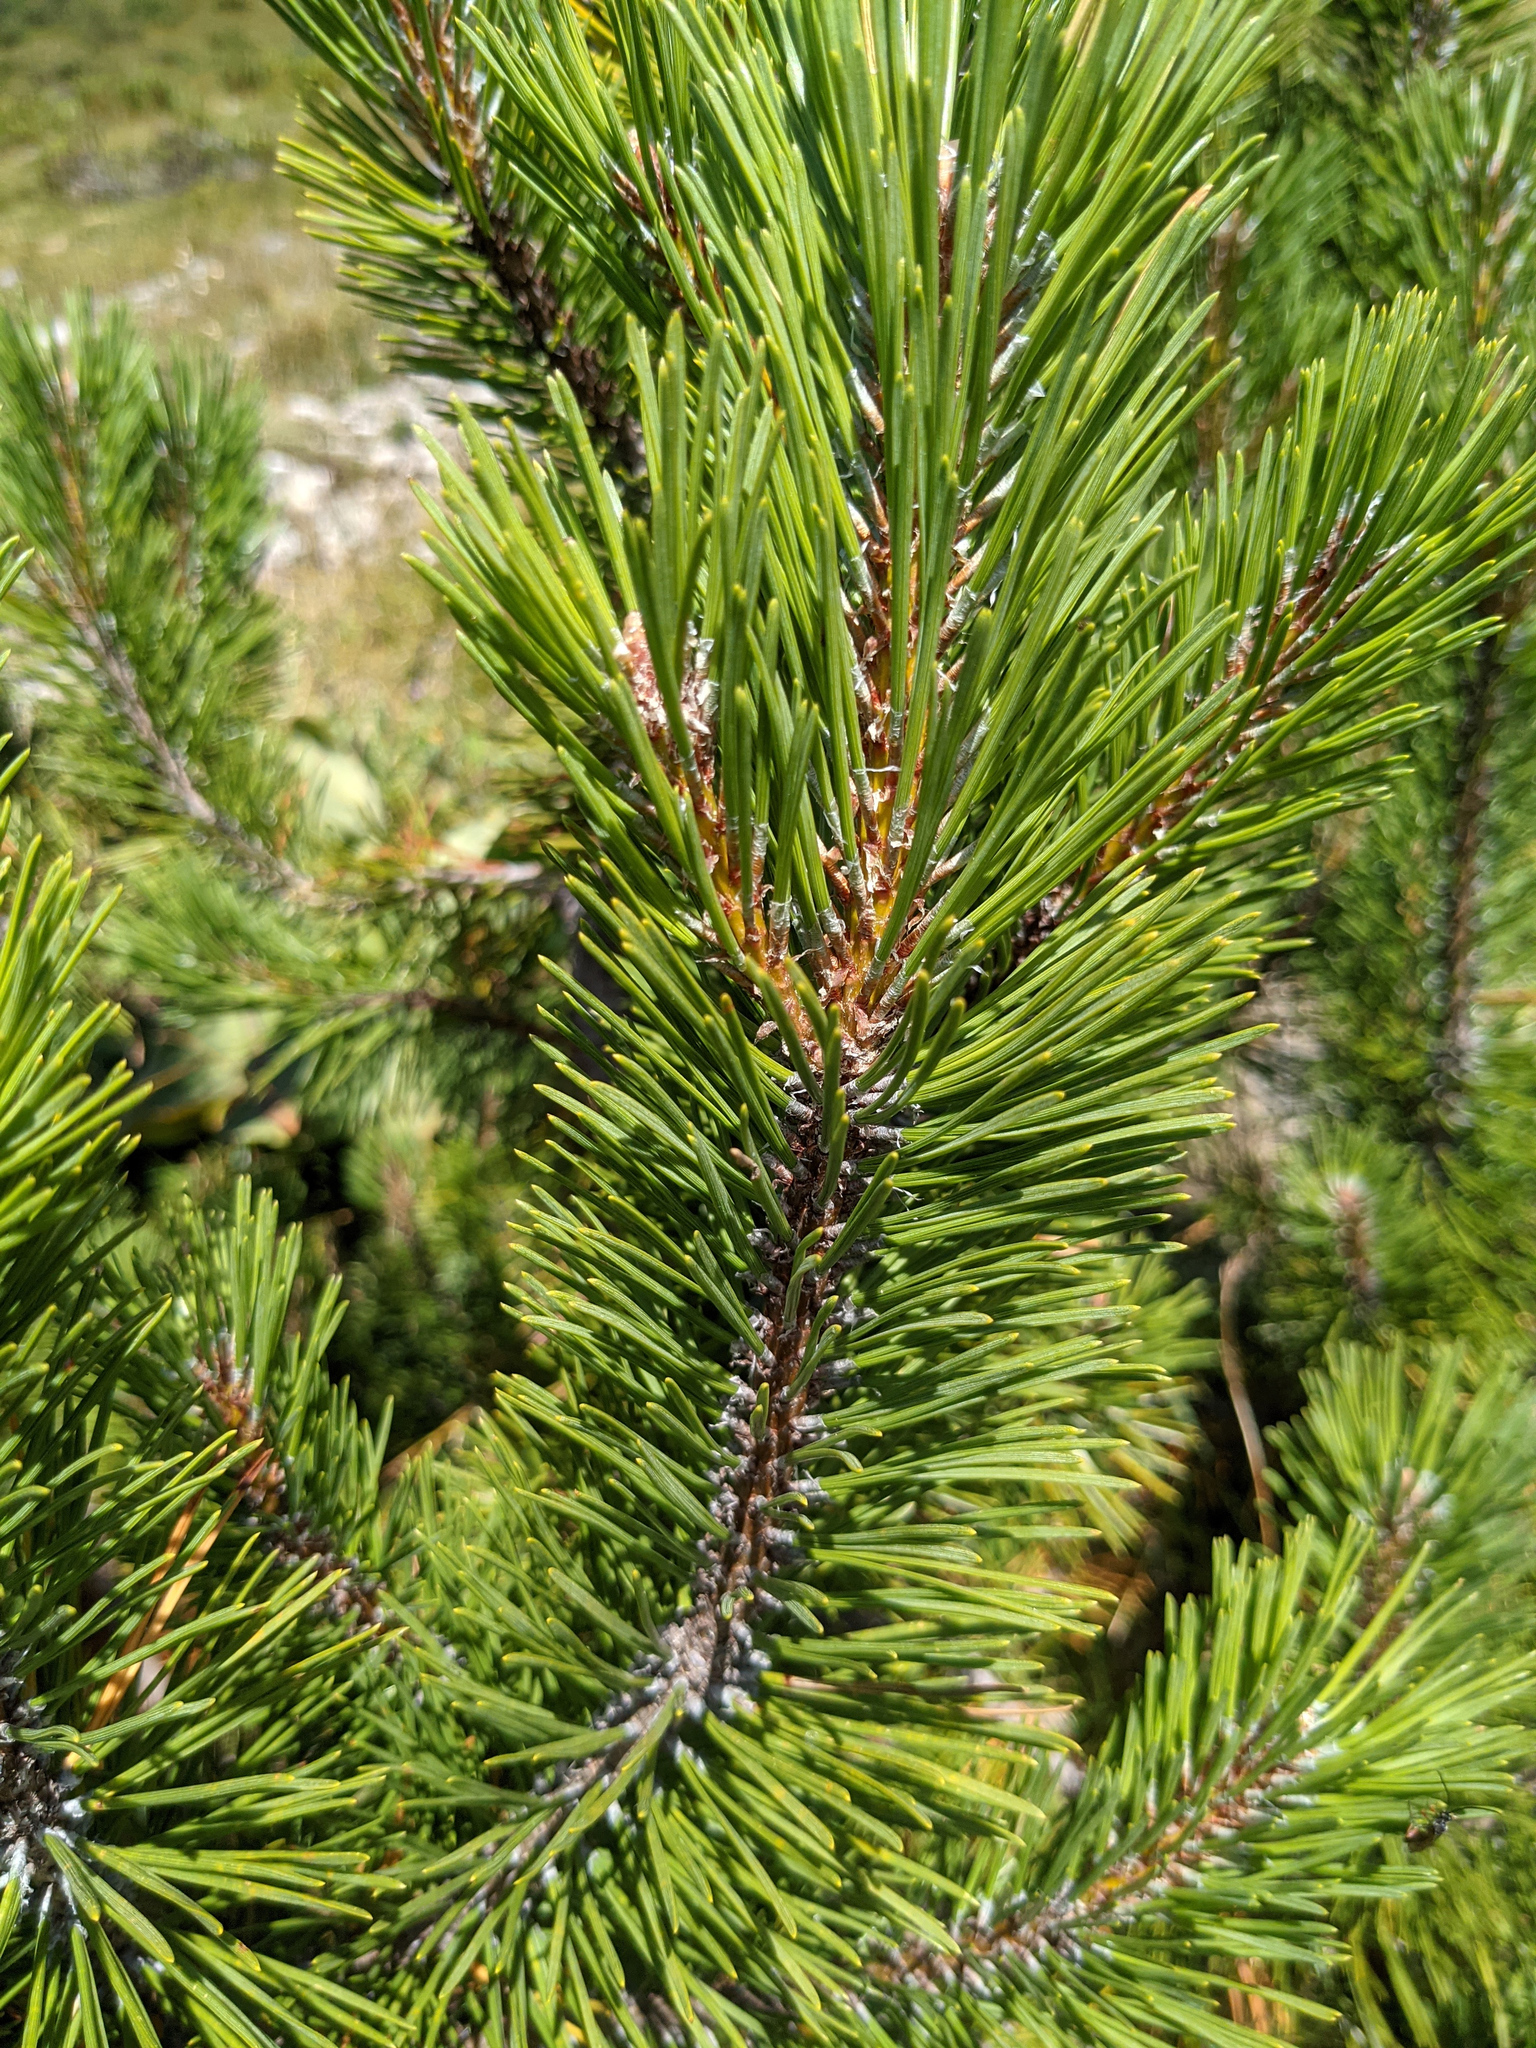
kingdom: Plantae
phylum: Tracheophyta
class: Pinopsida
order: Pinales
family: Pinaceae
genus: Pinus
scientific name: Pinus mugo
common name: Mugo pine
